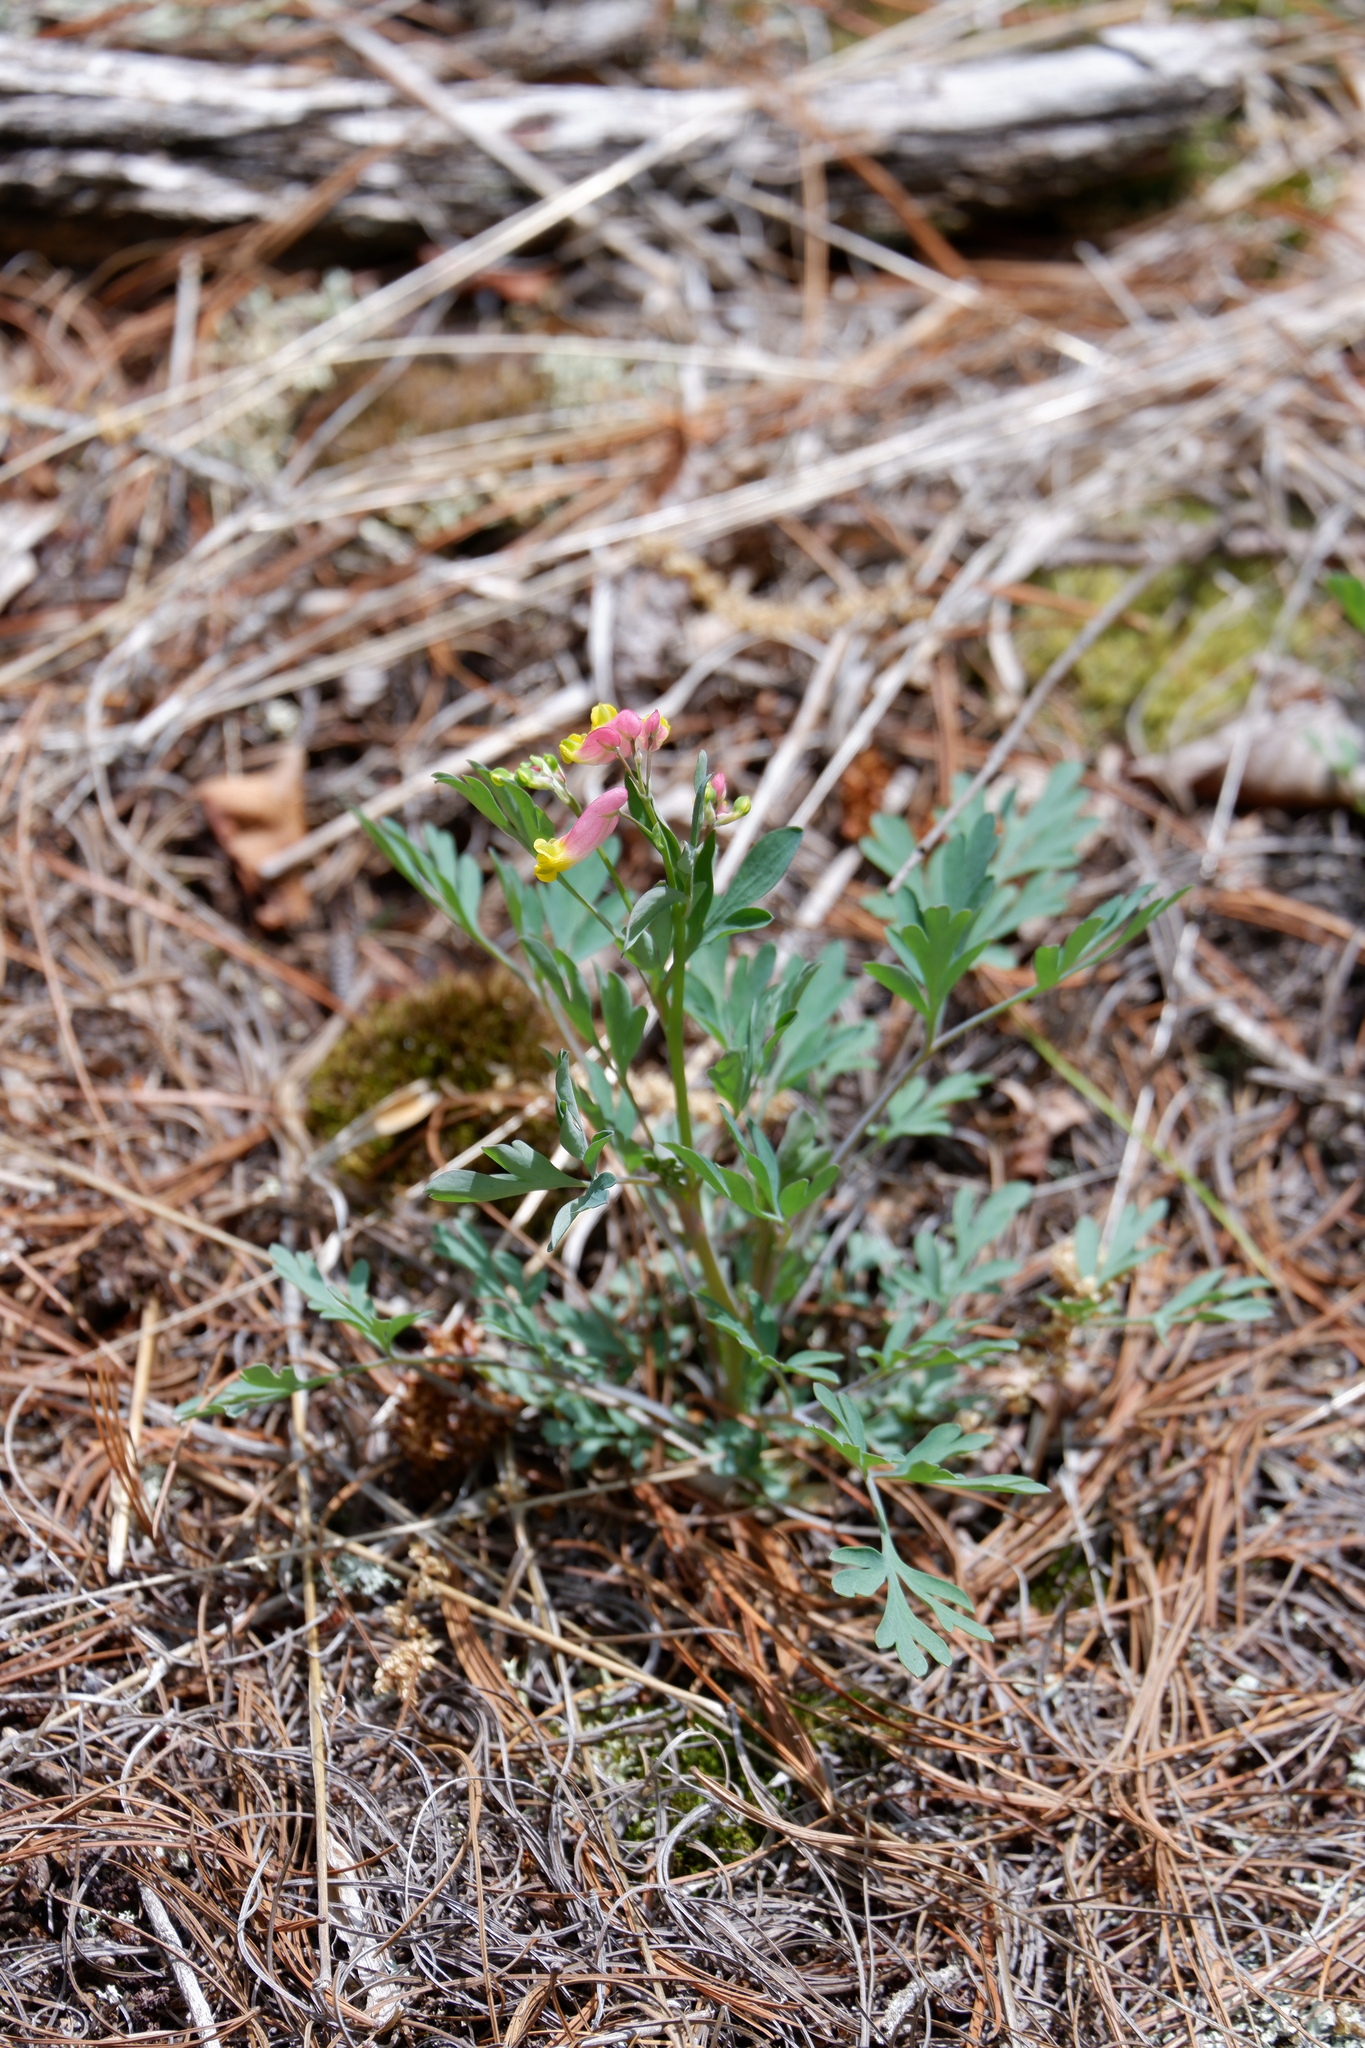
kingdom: Plantae
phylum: Tracheophyta
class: Magnoliopsida
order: Ranunculales
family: Papaveraceae
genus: Capnoides
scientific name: Capnoides sempervirens
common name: Rock harlequin
